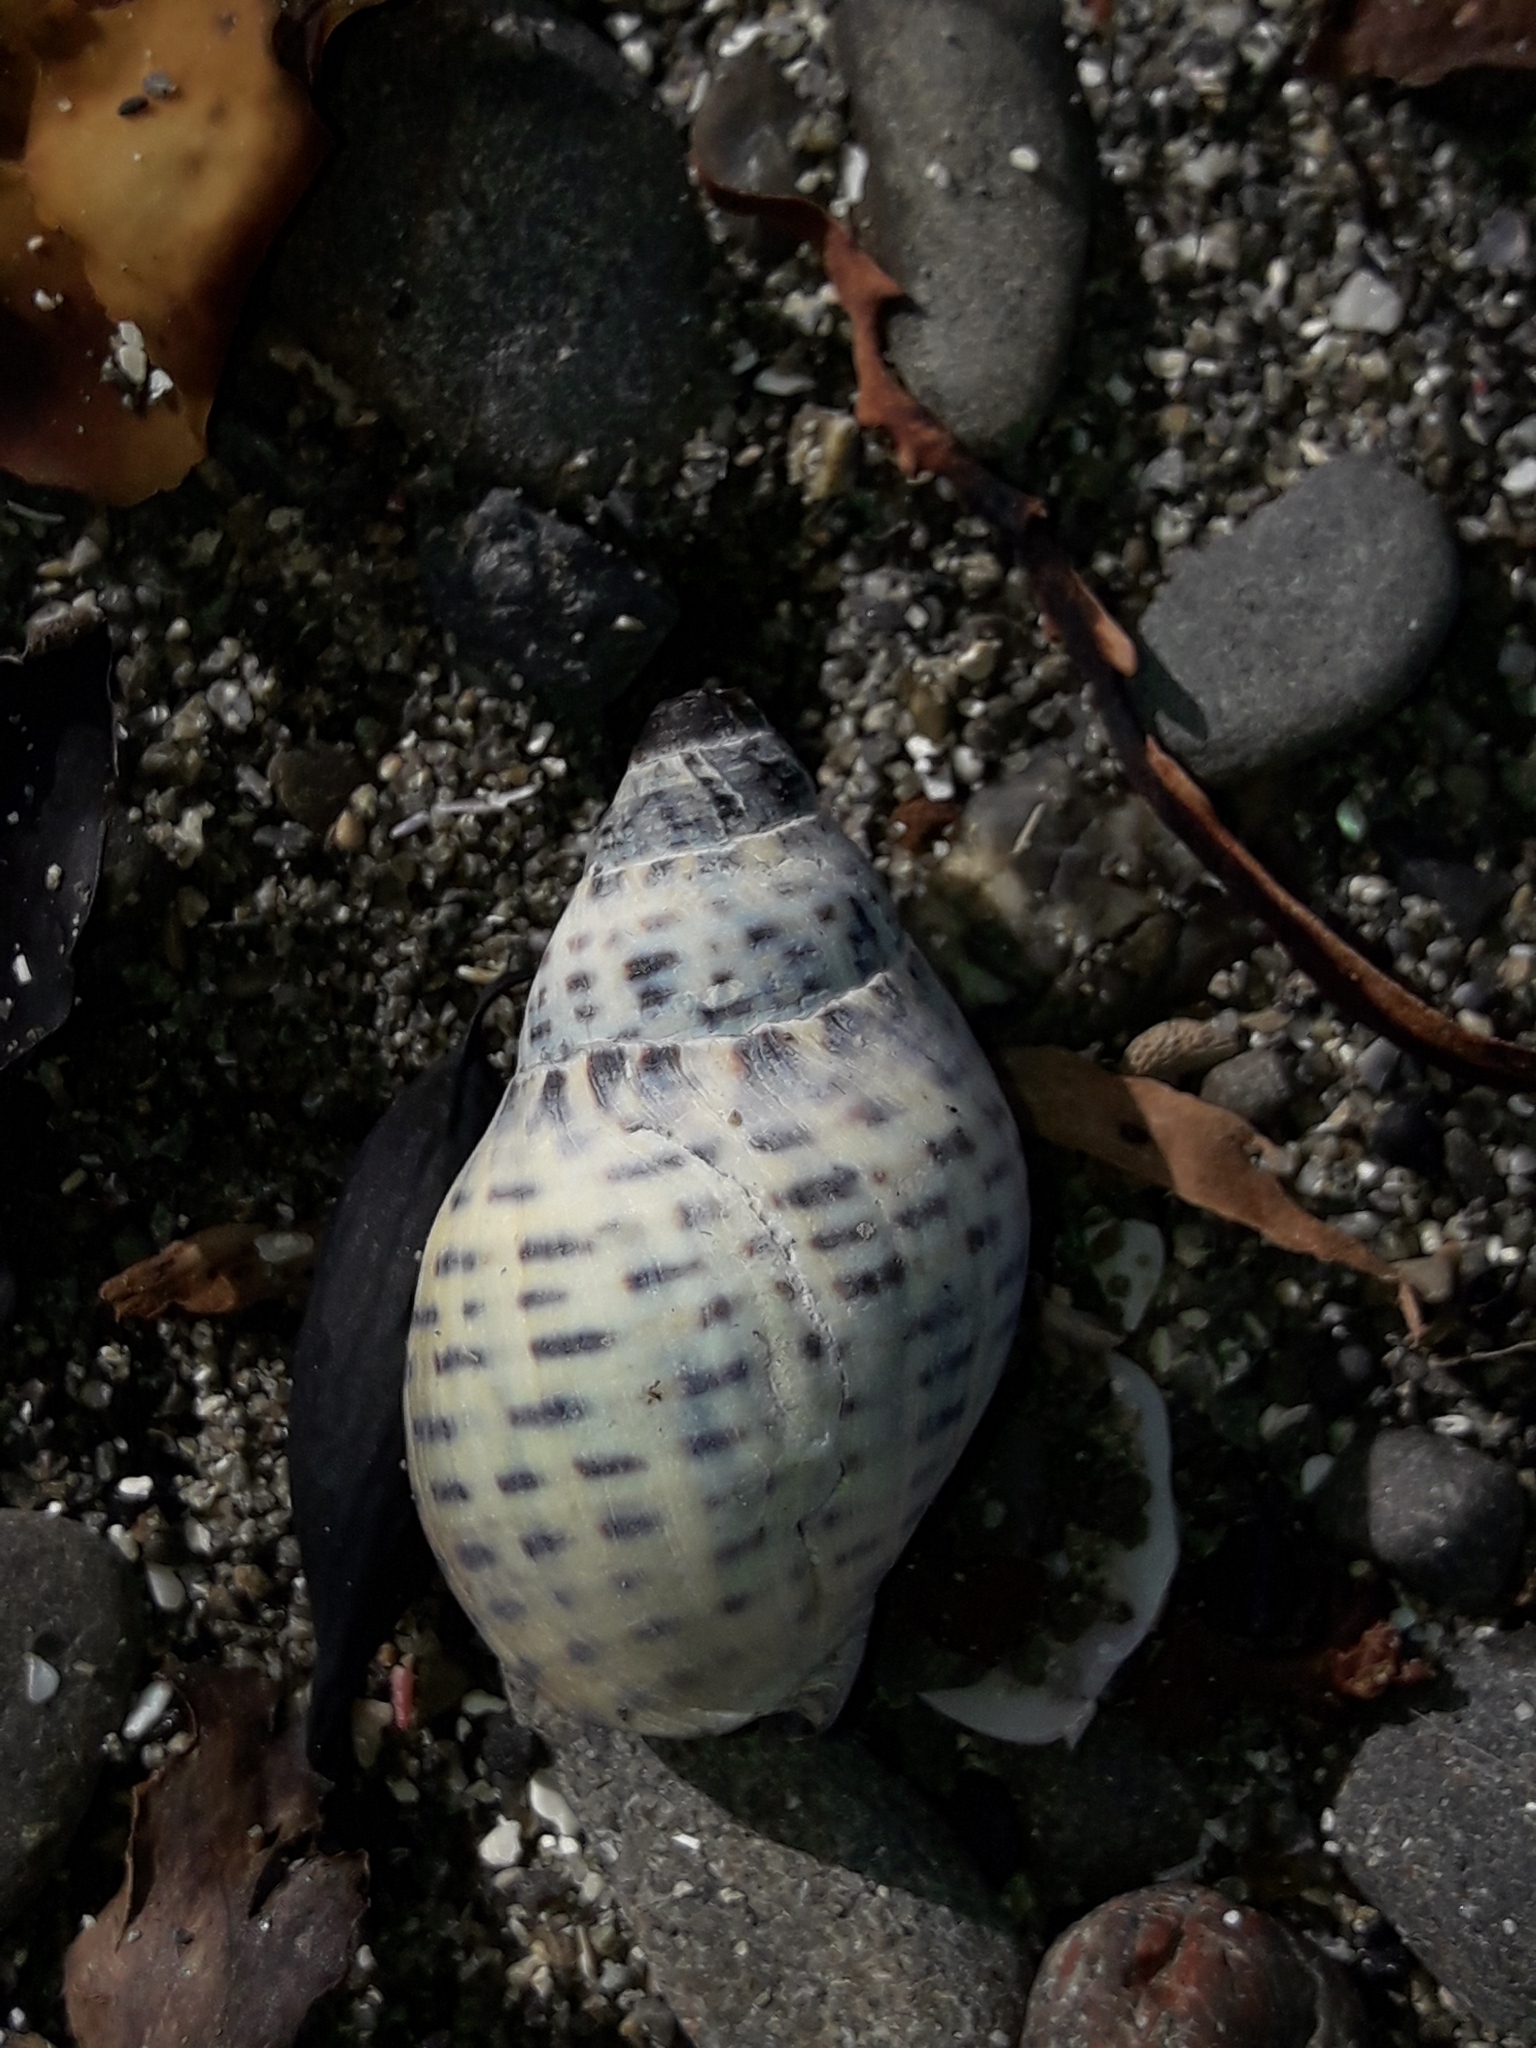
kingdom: Animalia
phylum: Mollusca
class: Gastropoda
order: Neogastropoda
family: Cominellidae
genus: Cominella
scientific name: Cominella maculosa
